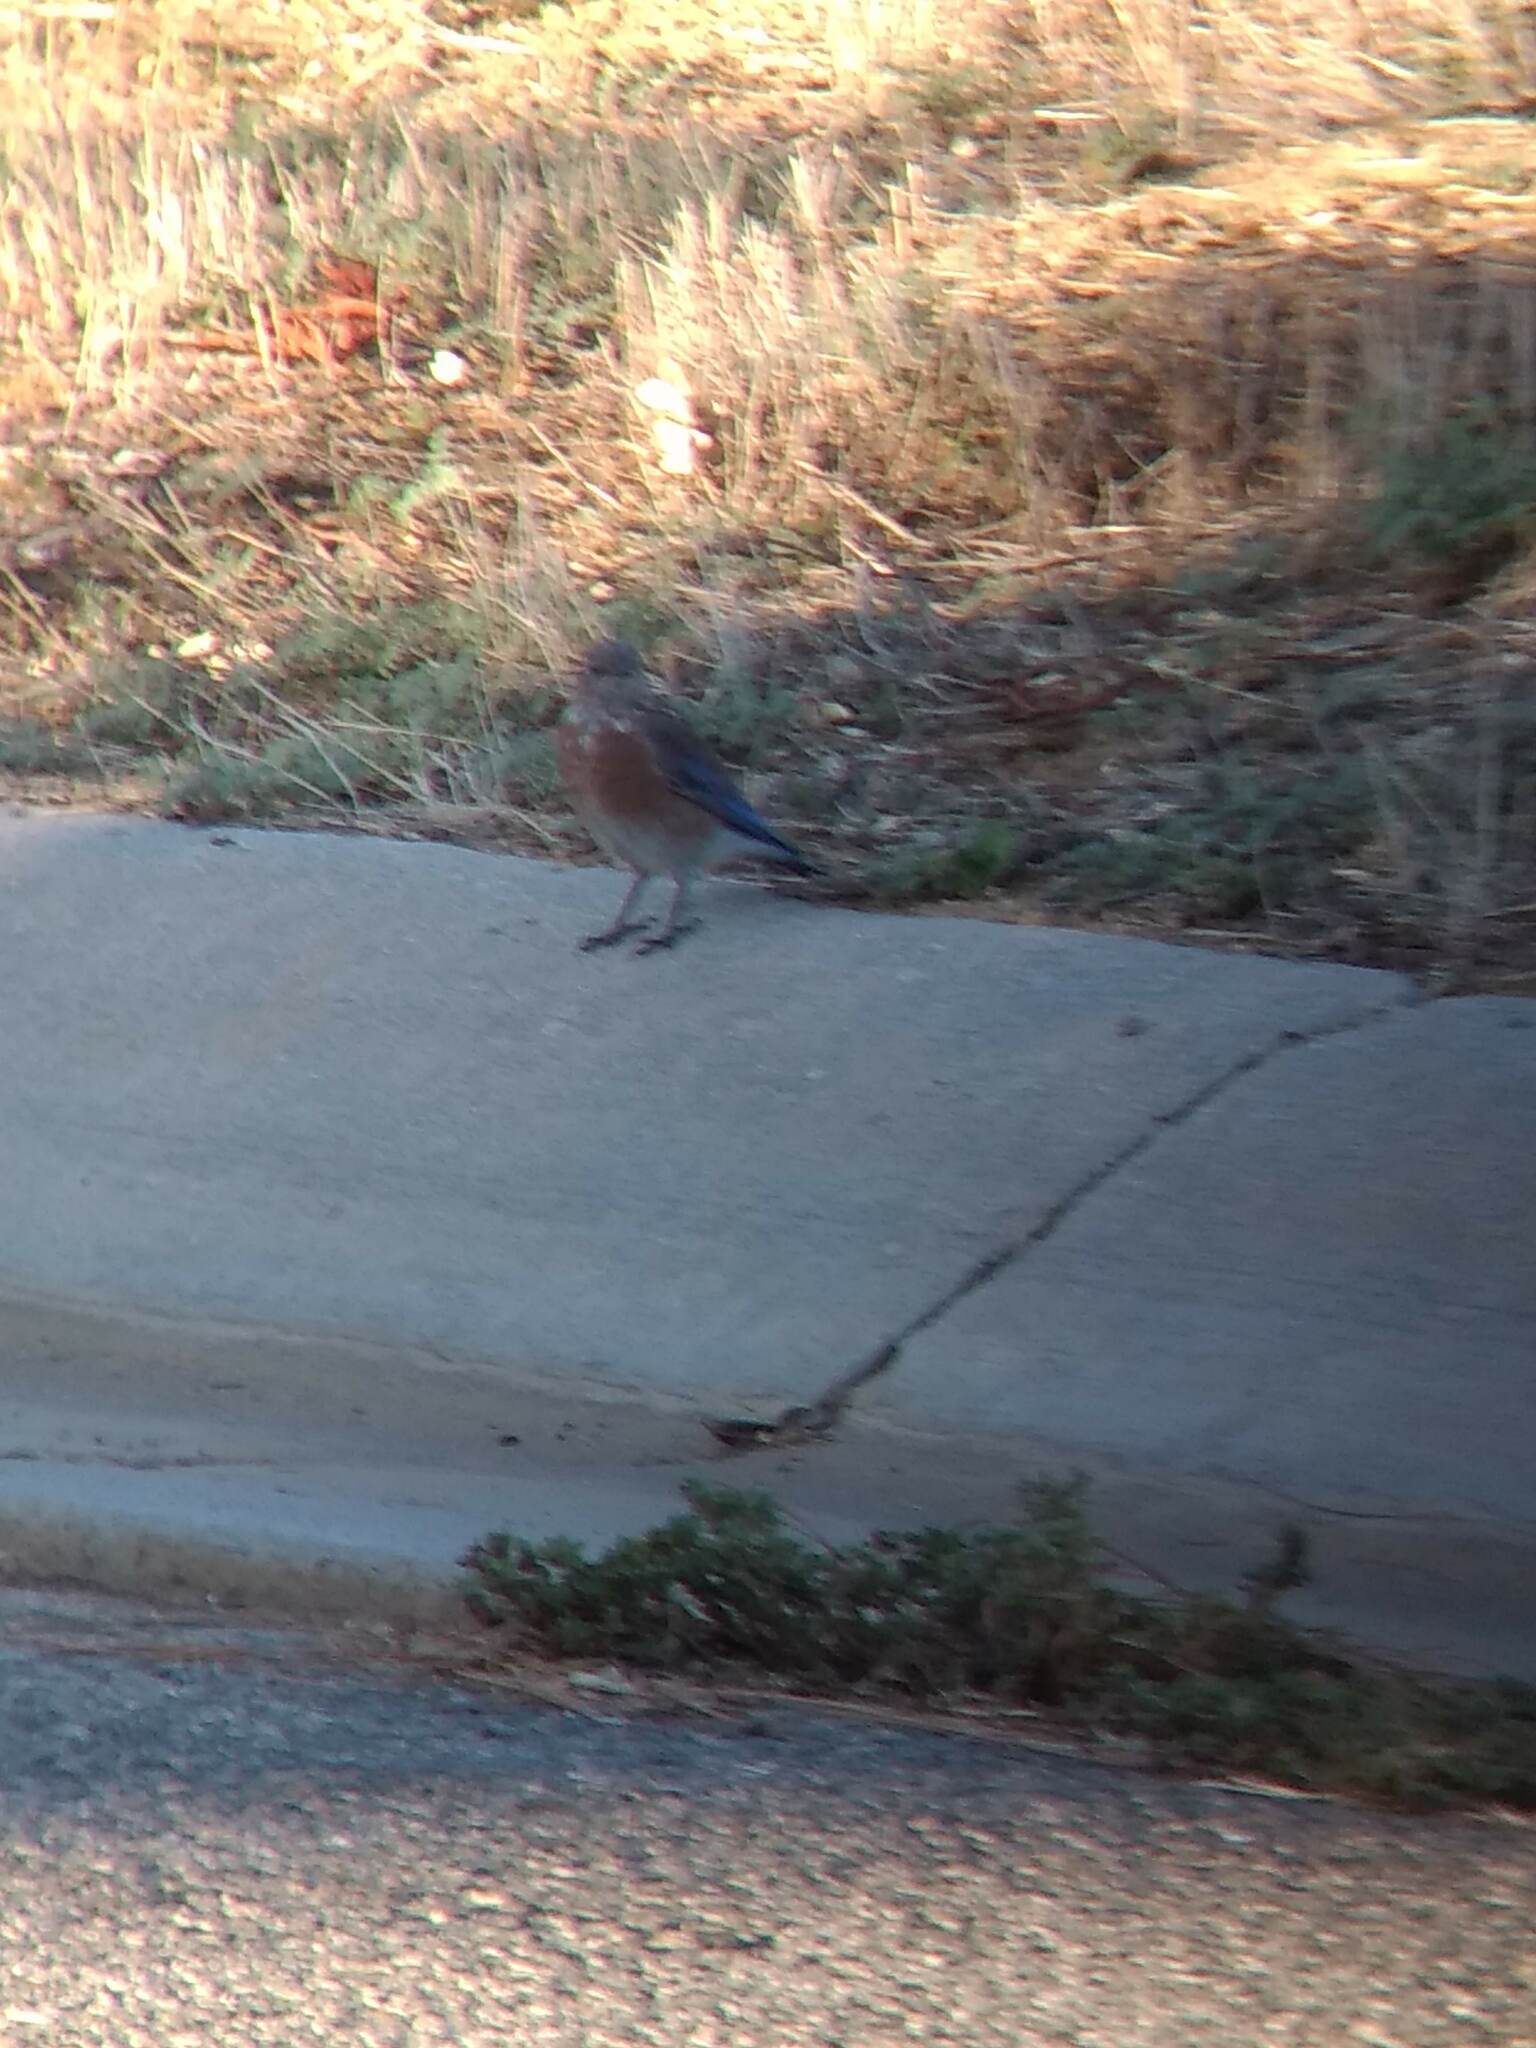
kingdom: Animalia
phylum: Chordata
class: Aves
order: Passeriformes
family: Turdidae
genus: Sialia
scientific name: Sialia mexicana
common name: Western bluebird
